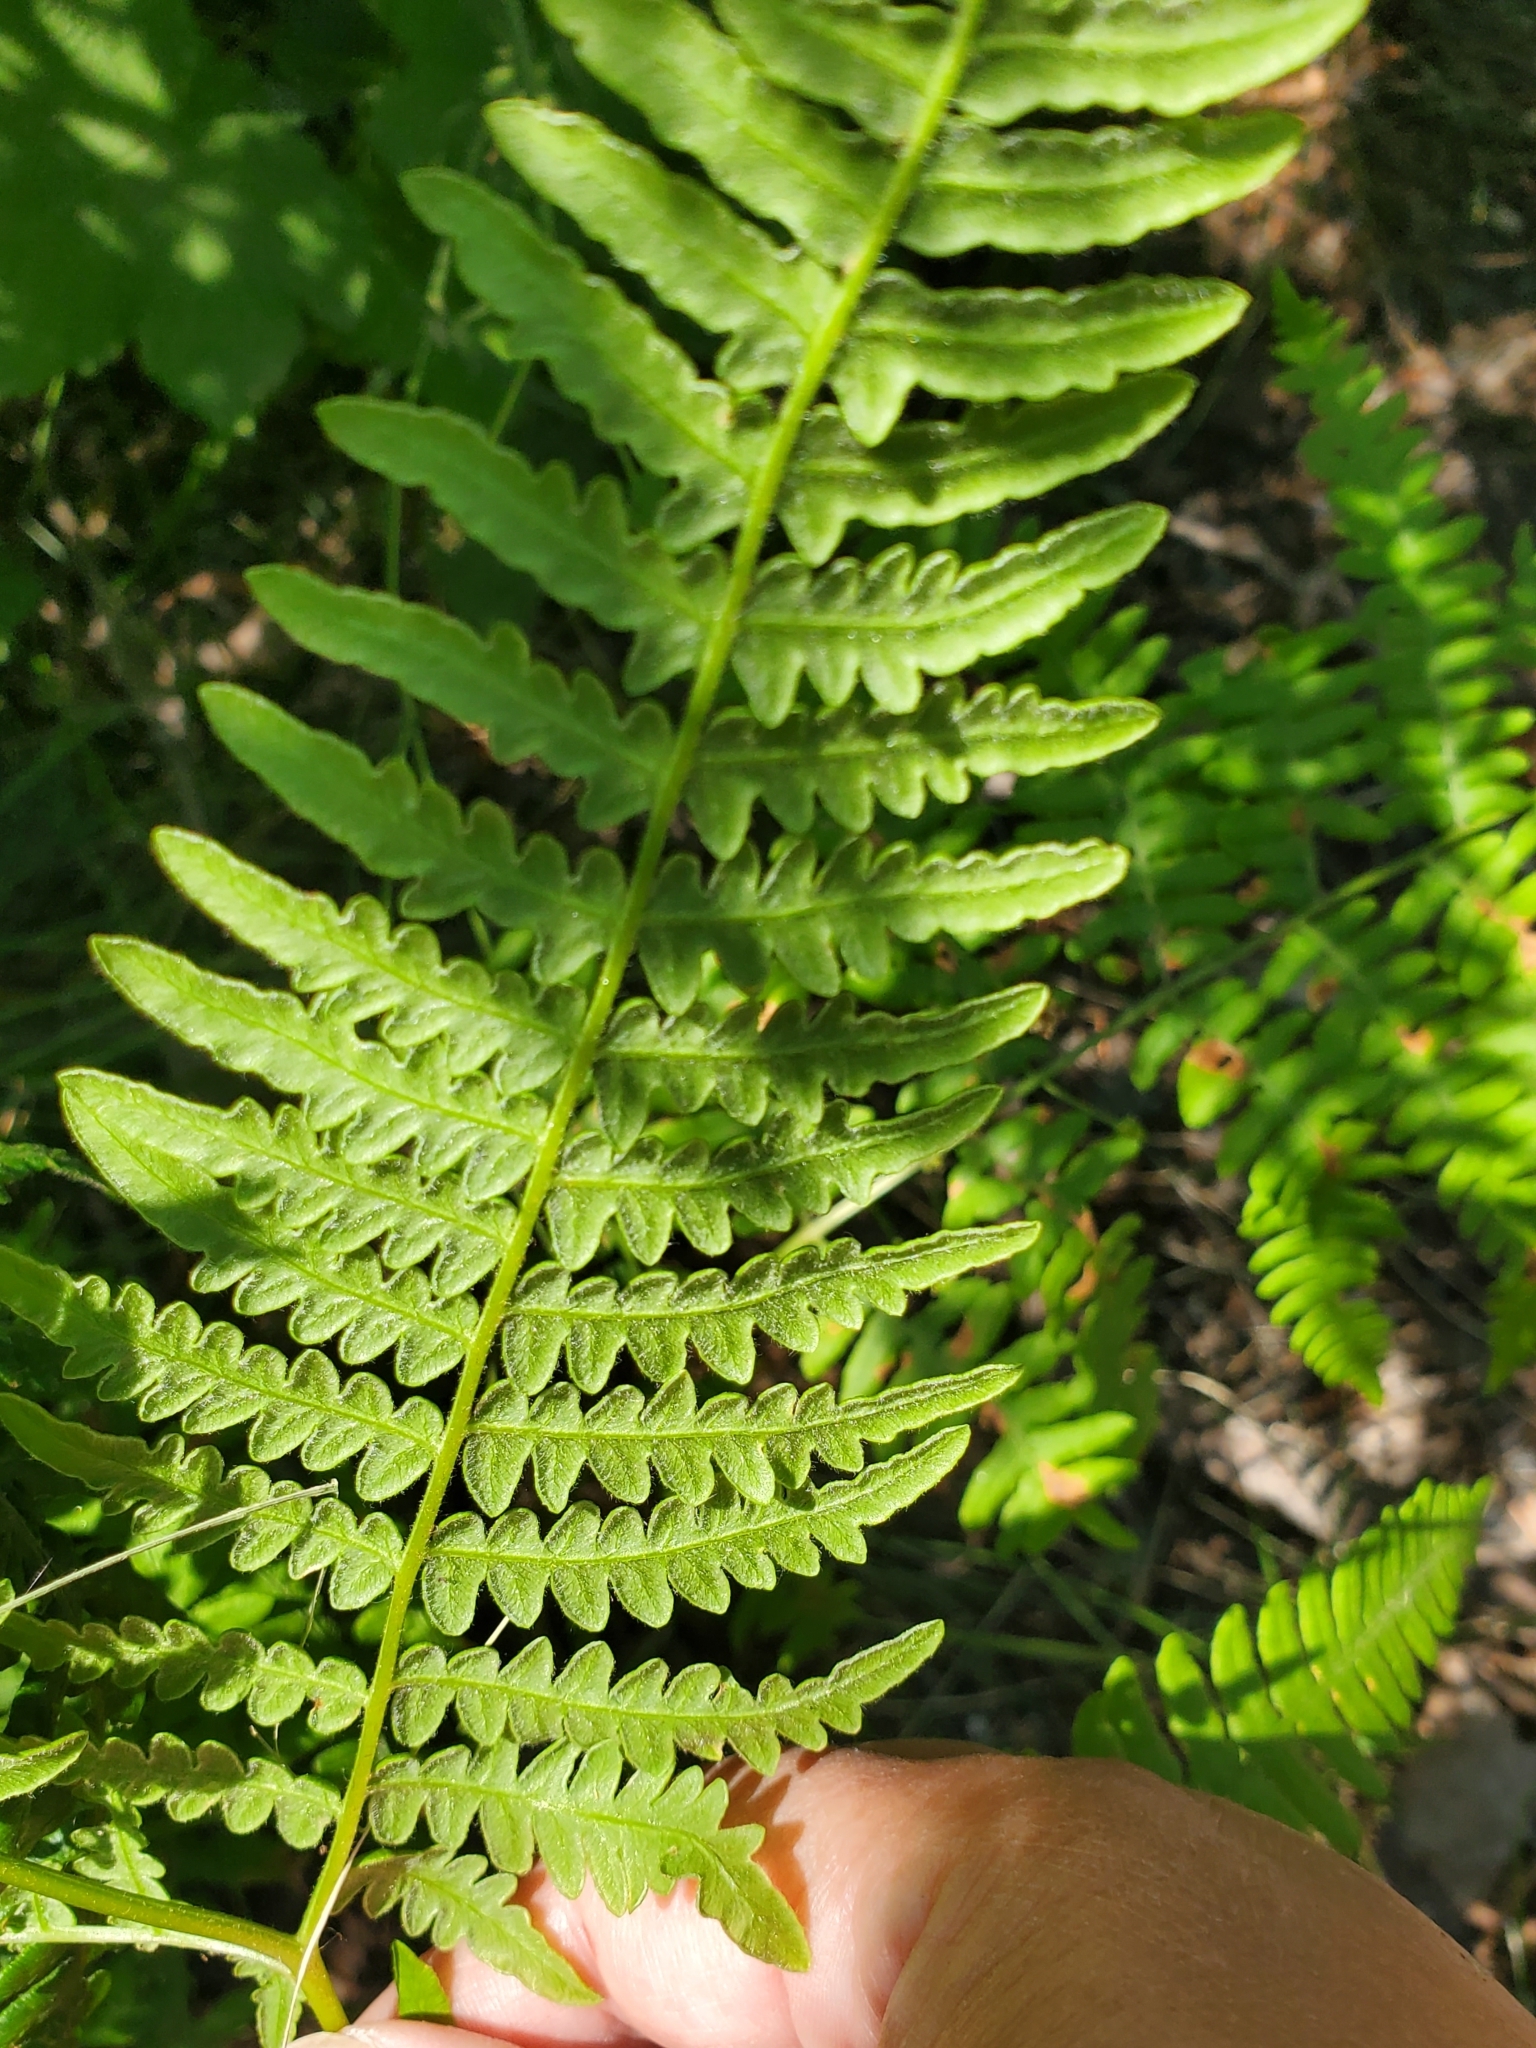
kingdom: Plantae
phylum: Tracheophyta
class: Polypodiopsida
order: Polypodiales
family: Dennstaedtiaceae
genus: Pteridium
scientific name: Pteridium aquilinum
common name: Bracken
